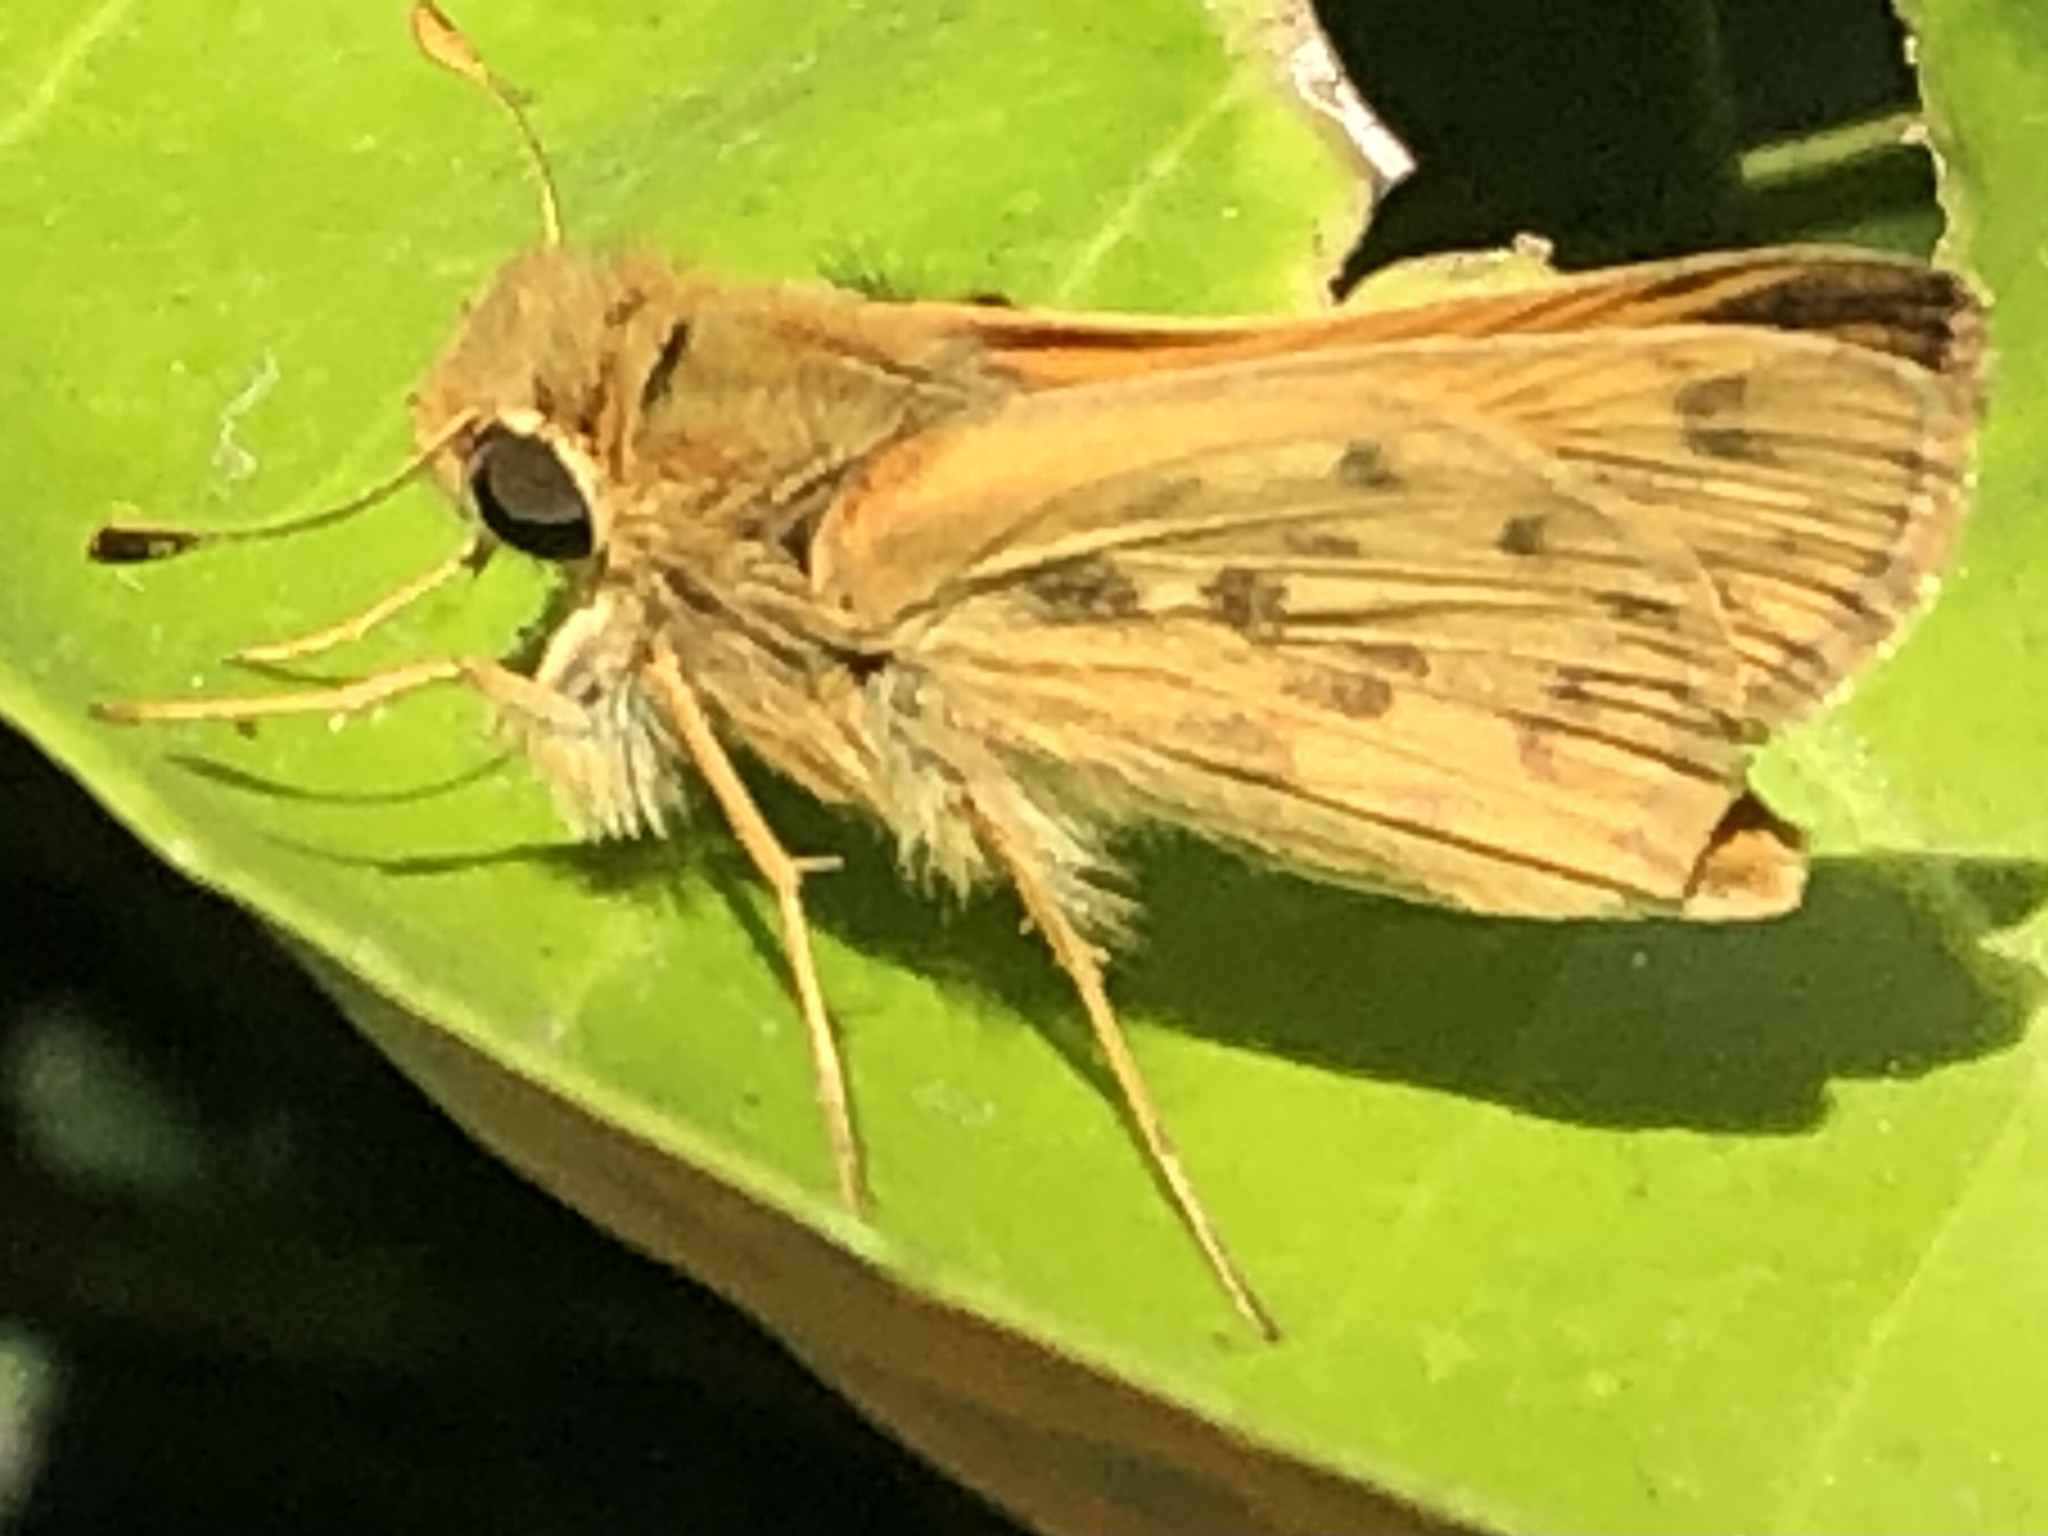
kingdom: Animalia
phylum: Arthropoda
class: Insecta
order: Lepidoptera
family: Hesperiidae
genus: Hylephila
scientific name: Hylephila phyleus
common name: Fiery skipper
